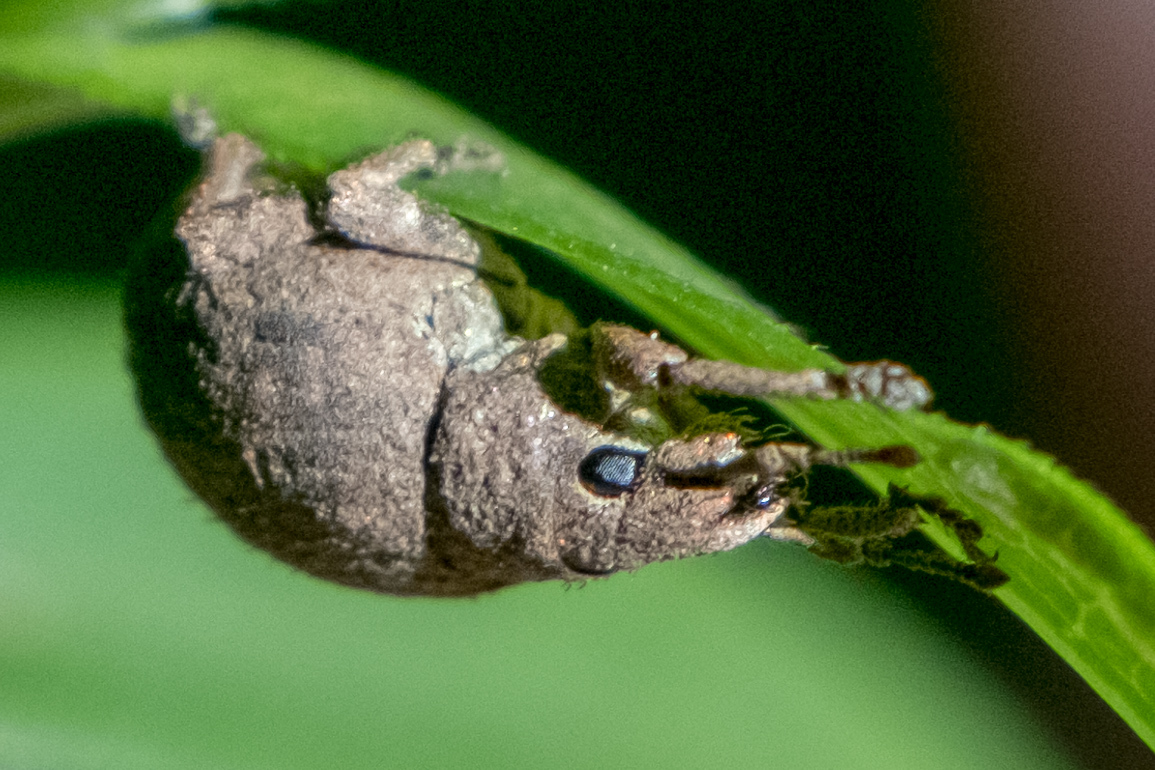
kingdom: Animalia
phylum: Arthropoda
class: Insecta
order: Coleoptera
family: Curculionidae
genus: Pseudocneorhinus
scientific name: Pseudocneorhinus bifasciatus
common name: Two-banded japanese weevil
